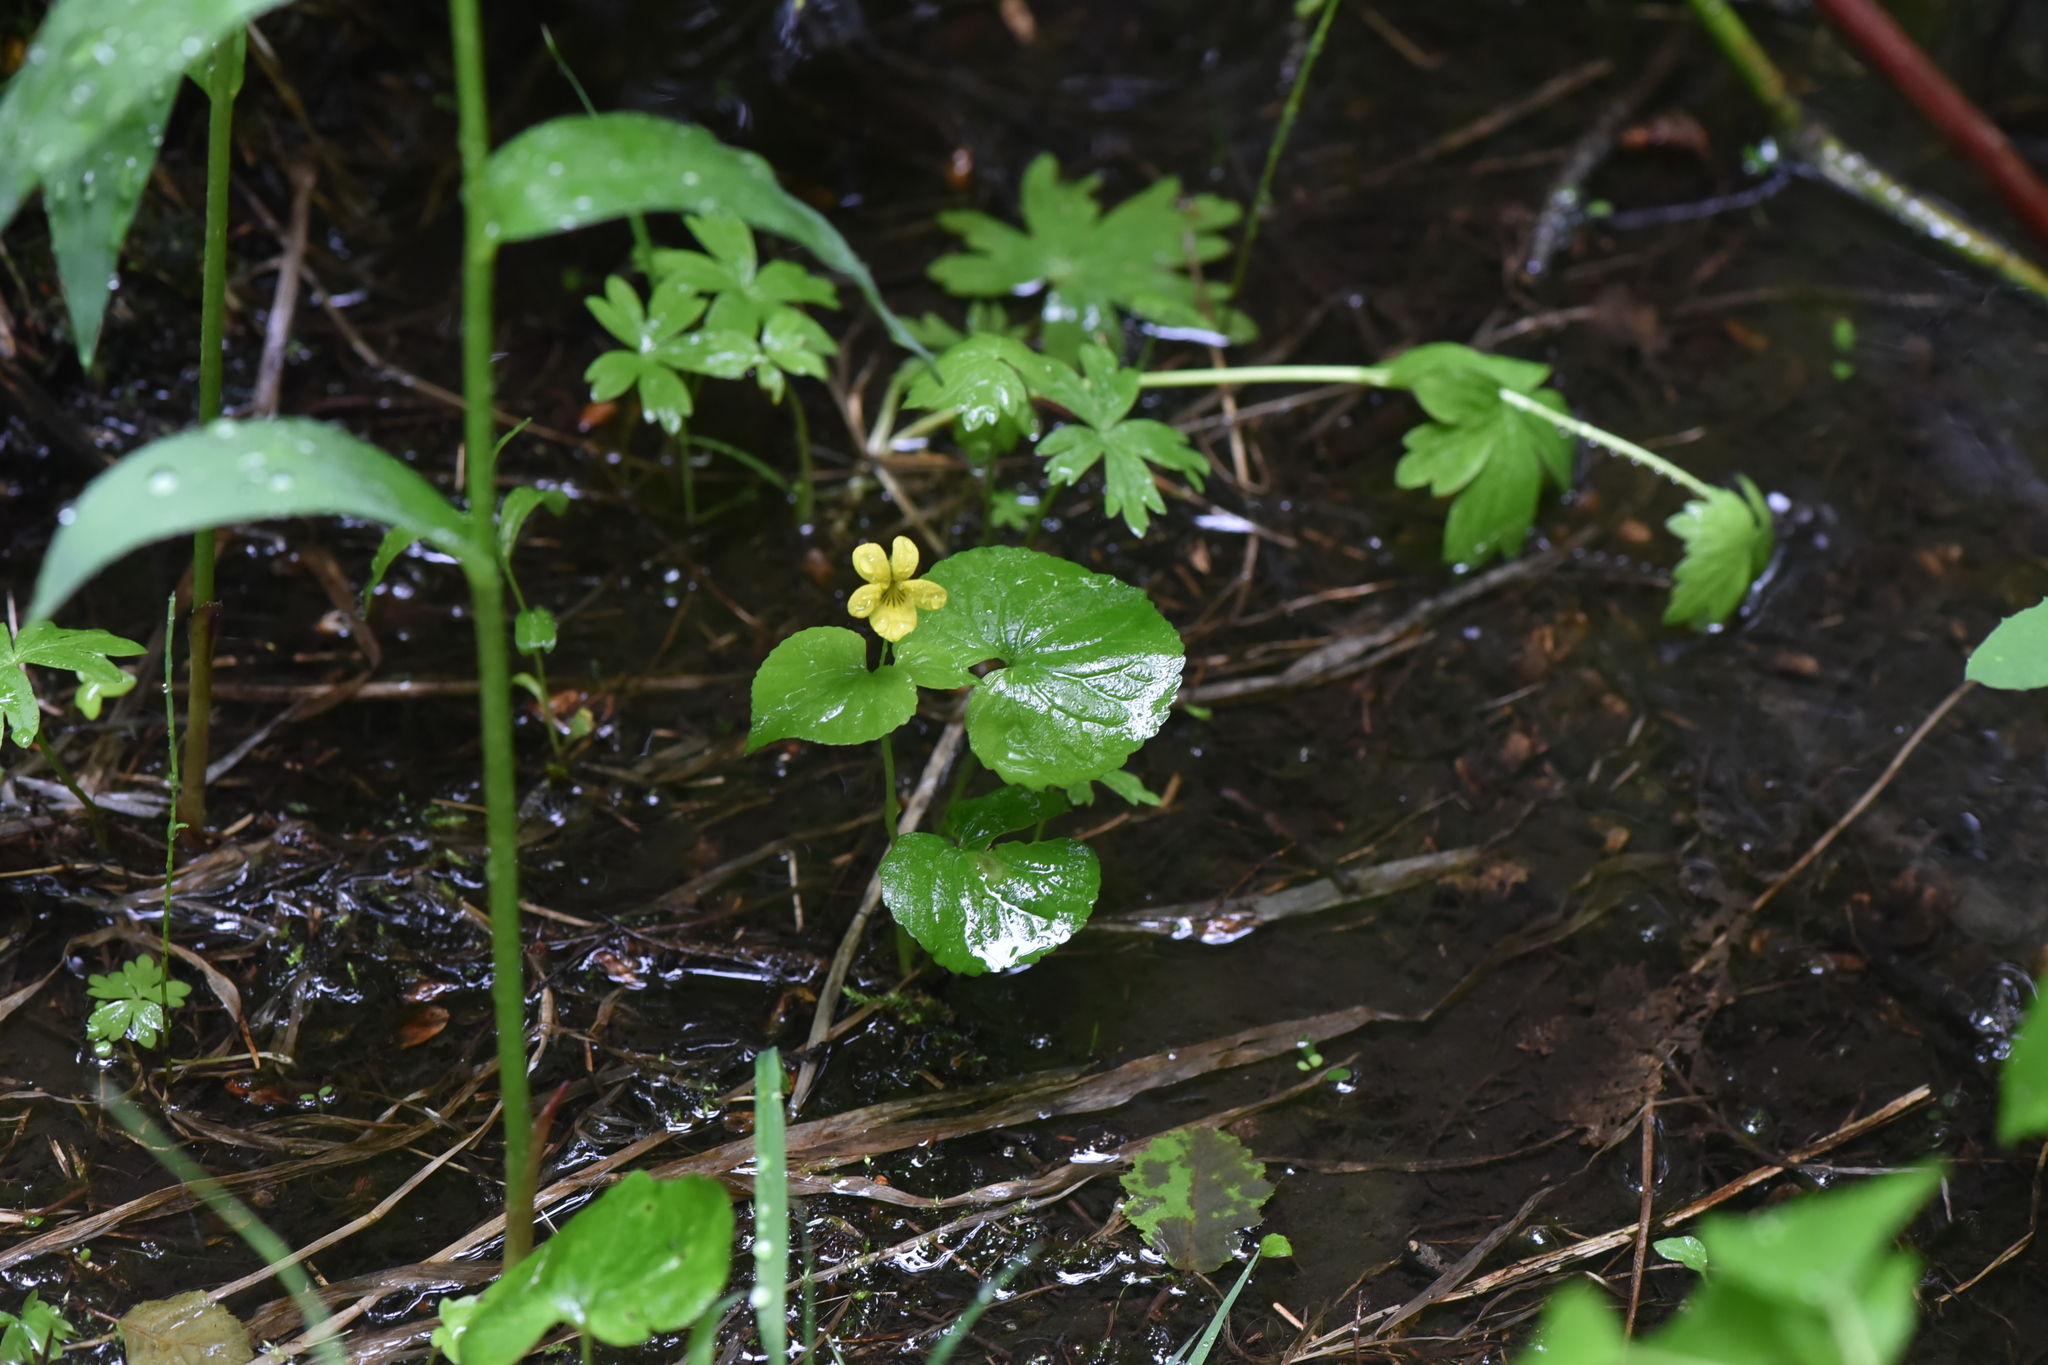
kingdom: Plantae
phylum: Tracheophyta
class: Magnoliopsida
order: Malpighiales
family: Violaceae
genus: Viola
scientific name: Viola glabella
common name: Stream violet
